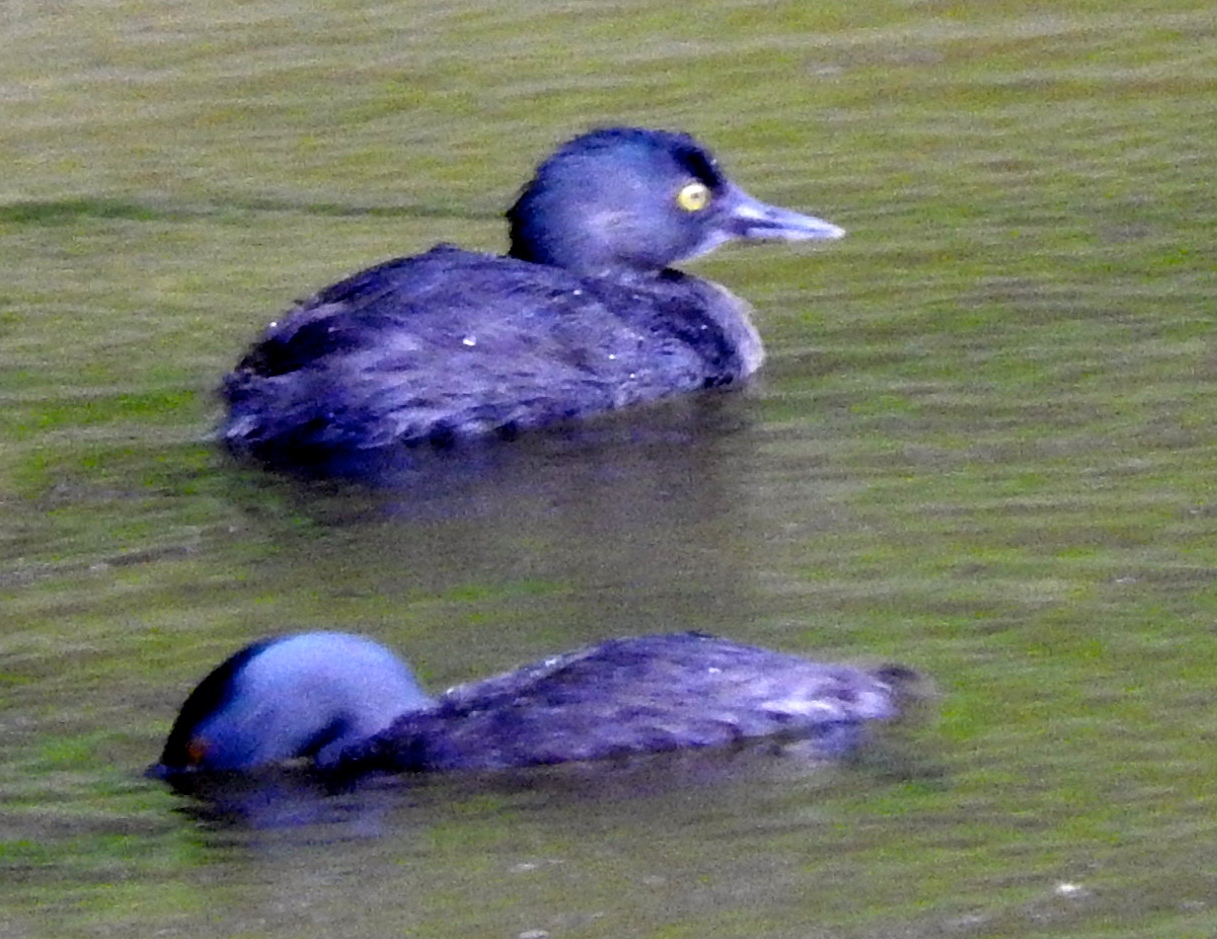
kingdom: Animalia
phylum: Chordata
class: Aves
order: Podicipediformes
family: Podicipedidae
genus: Tachybaptus
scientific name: Tachybaptus dominicus
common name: Least grebe
